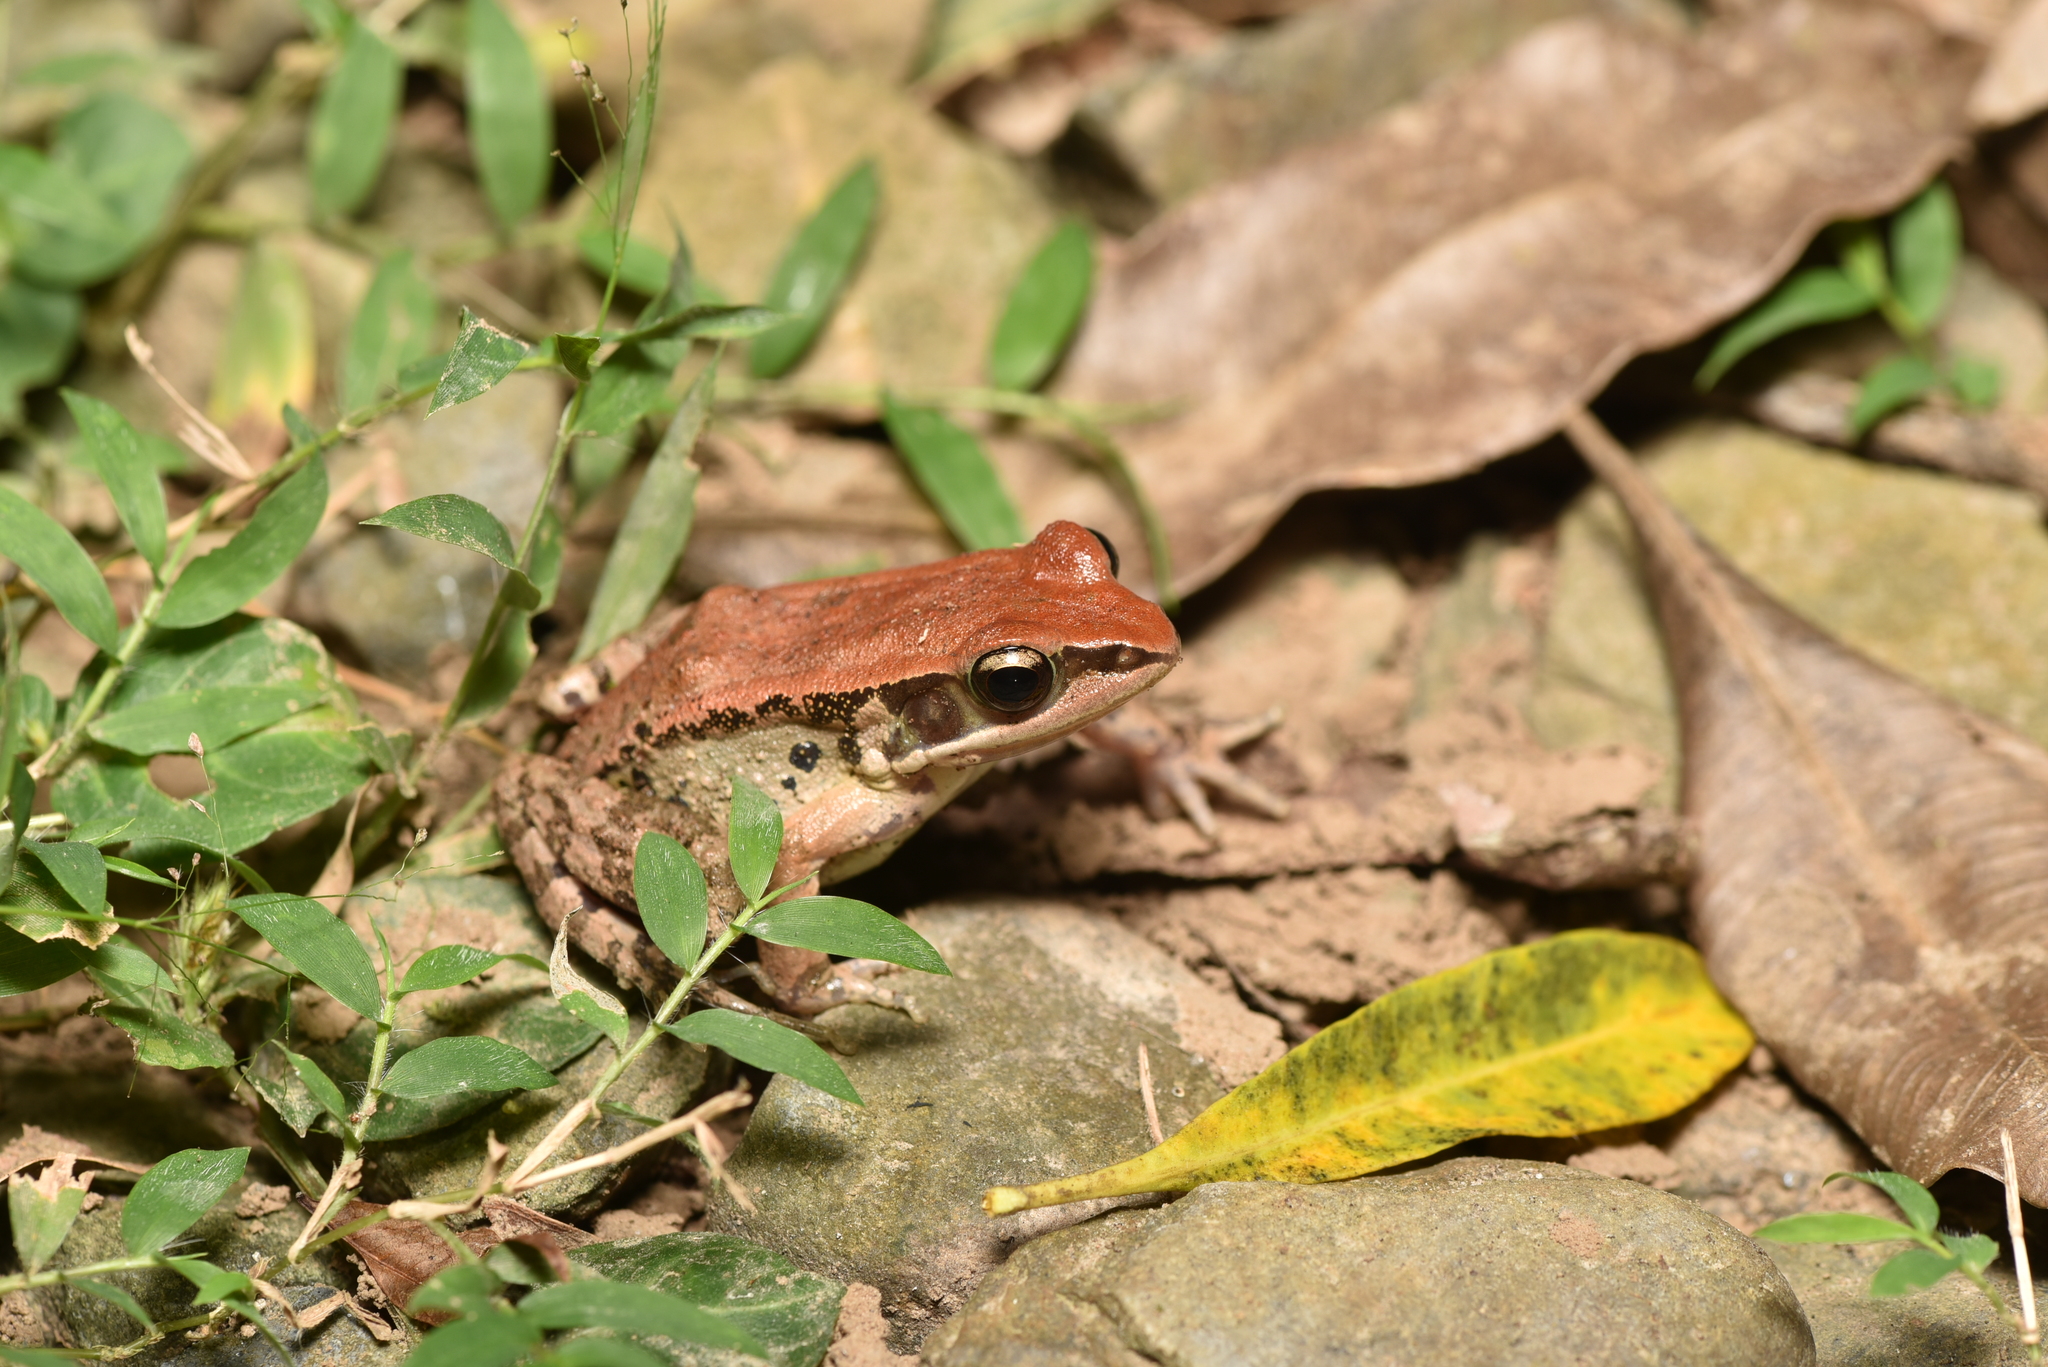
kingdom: Animalia
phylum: Chordata
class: Amphibia
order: Anura
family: Ranidae
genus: Hylarana
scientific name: Hylarana latouchii
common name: Broad-folded frog
